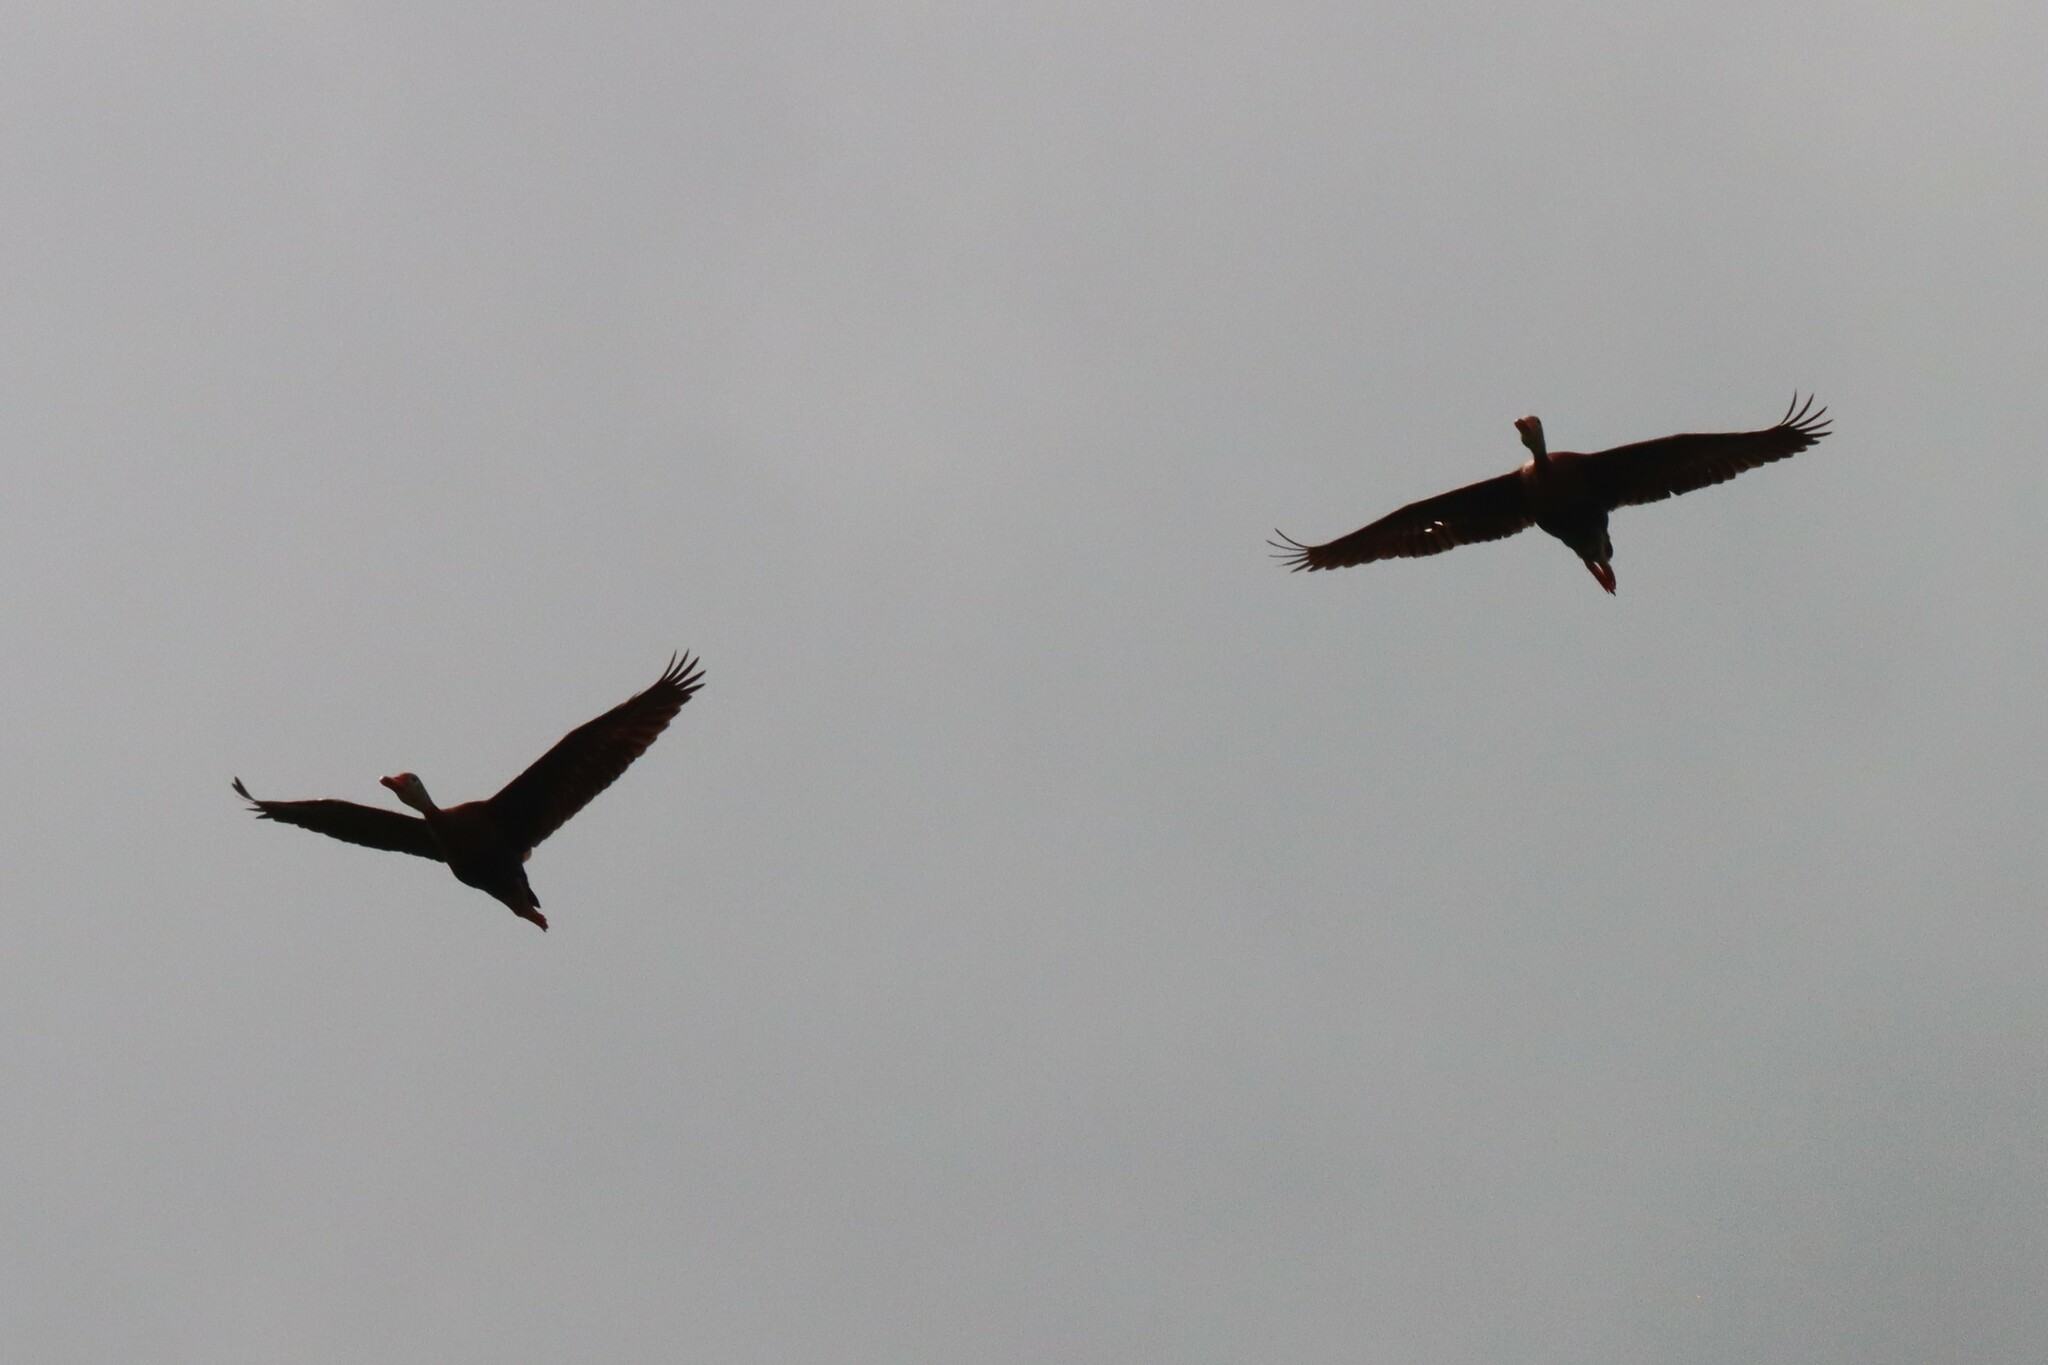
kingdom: Animalia
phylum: Chordata
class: Aves
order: Anseriformes
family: Anatidae
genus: Dendrocygna
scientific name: Dendrocygna autumnalis
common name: Black-bellied whistling duck
